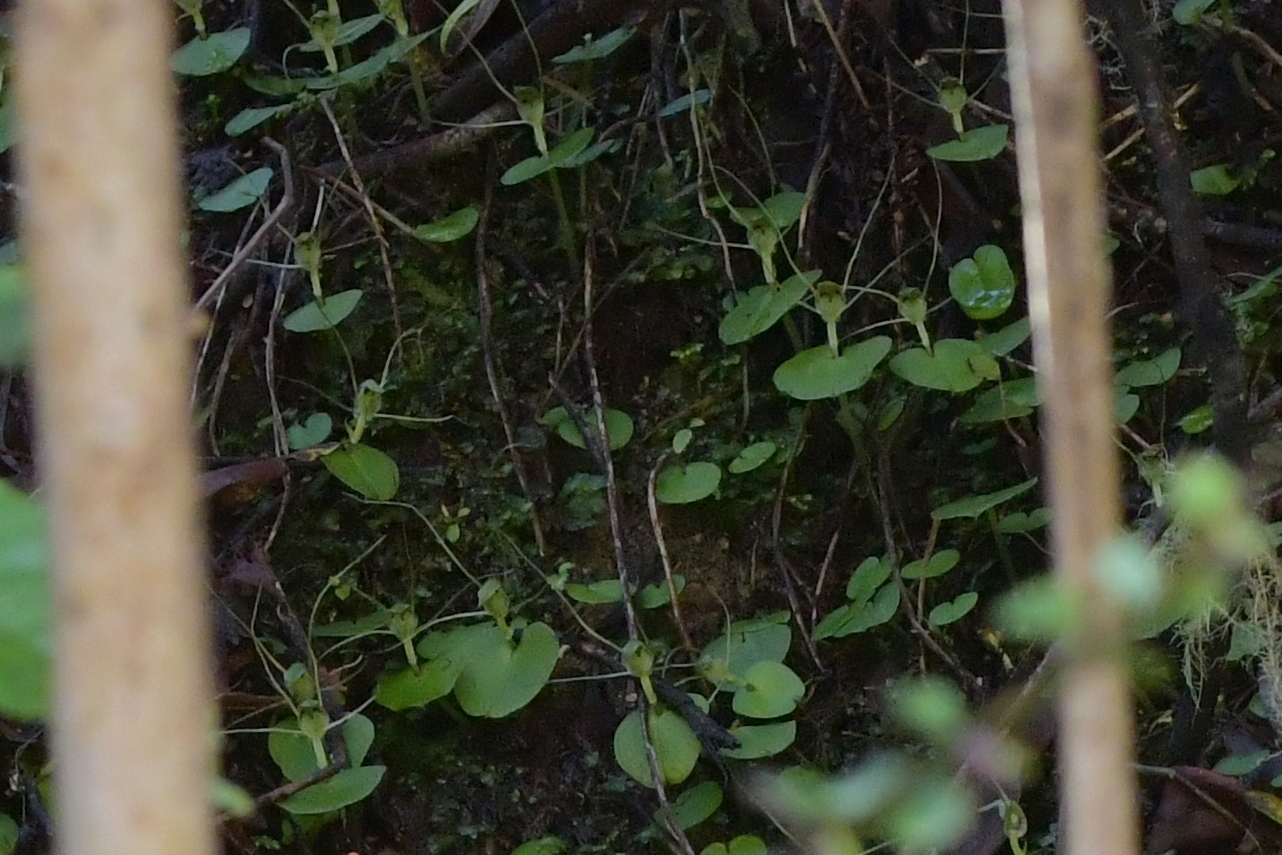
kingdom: Plantae
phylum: Tracheophyta
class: Liliopsida
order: Asparagales
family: Orchidaceae
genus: Corybas
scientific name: Corybas papa
